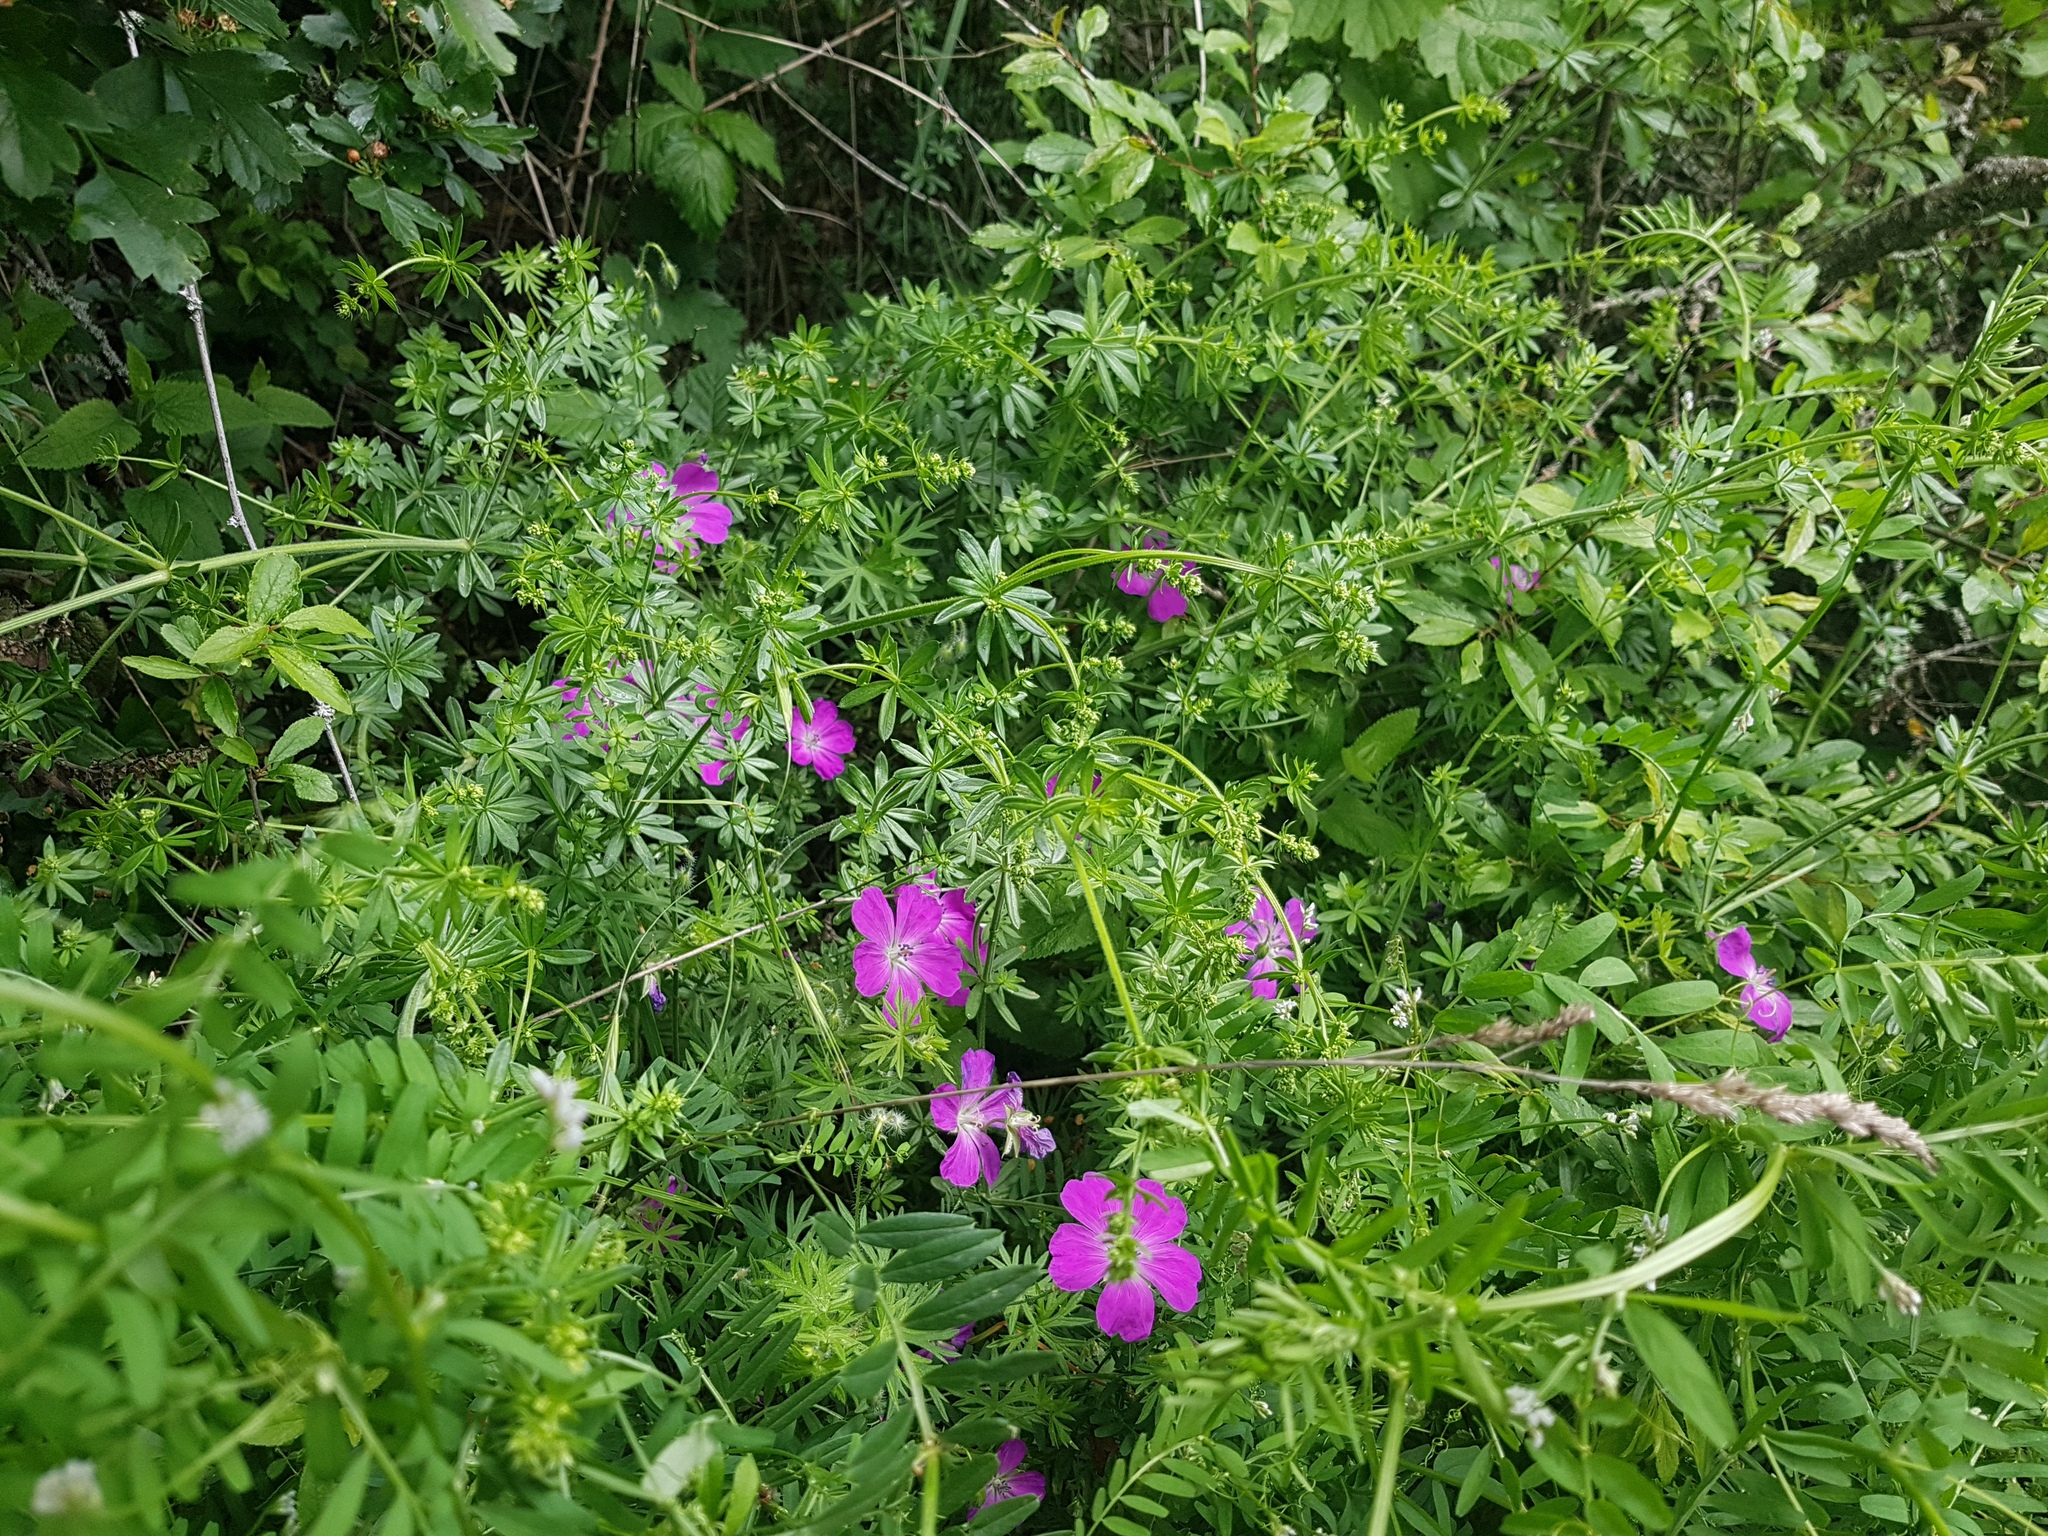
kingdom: Plantae
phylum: Tracheophyta
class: Magnoliopsida
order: Geraniales
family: Geraniaceae
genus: Geranium
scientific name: Geranium sanguineum
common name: Bloody crane's-bill
